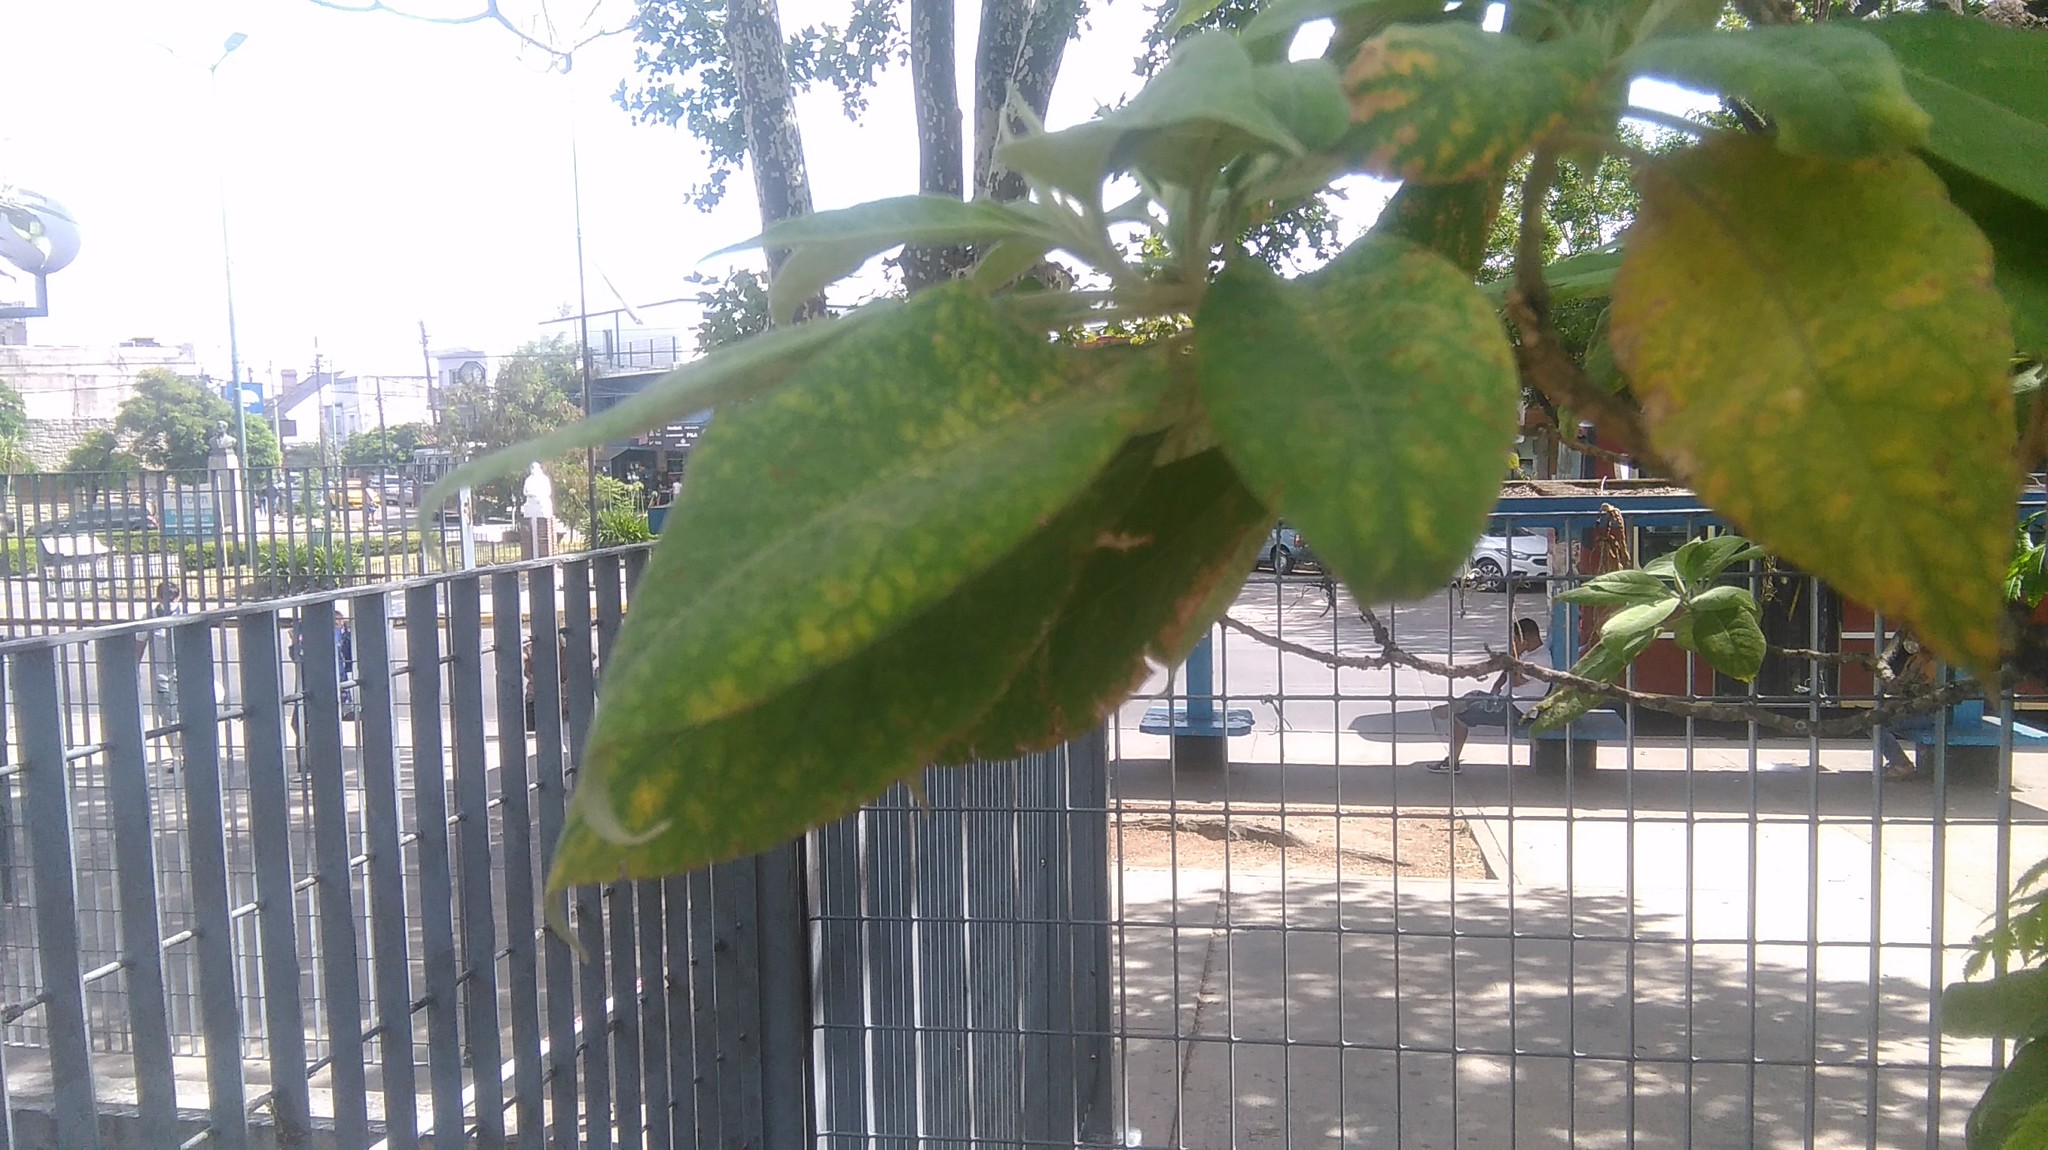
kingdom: Plantae
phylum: Tracheophyta
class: Magnoliopsida
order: Solanales
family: Solanaceae
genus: Solanum
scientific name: Solanum granulosoleprosum
